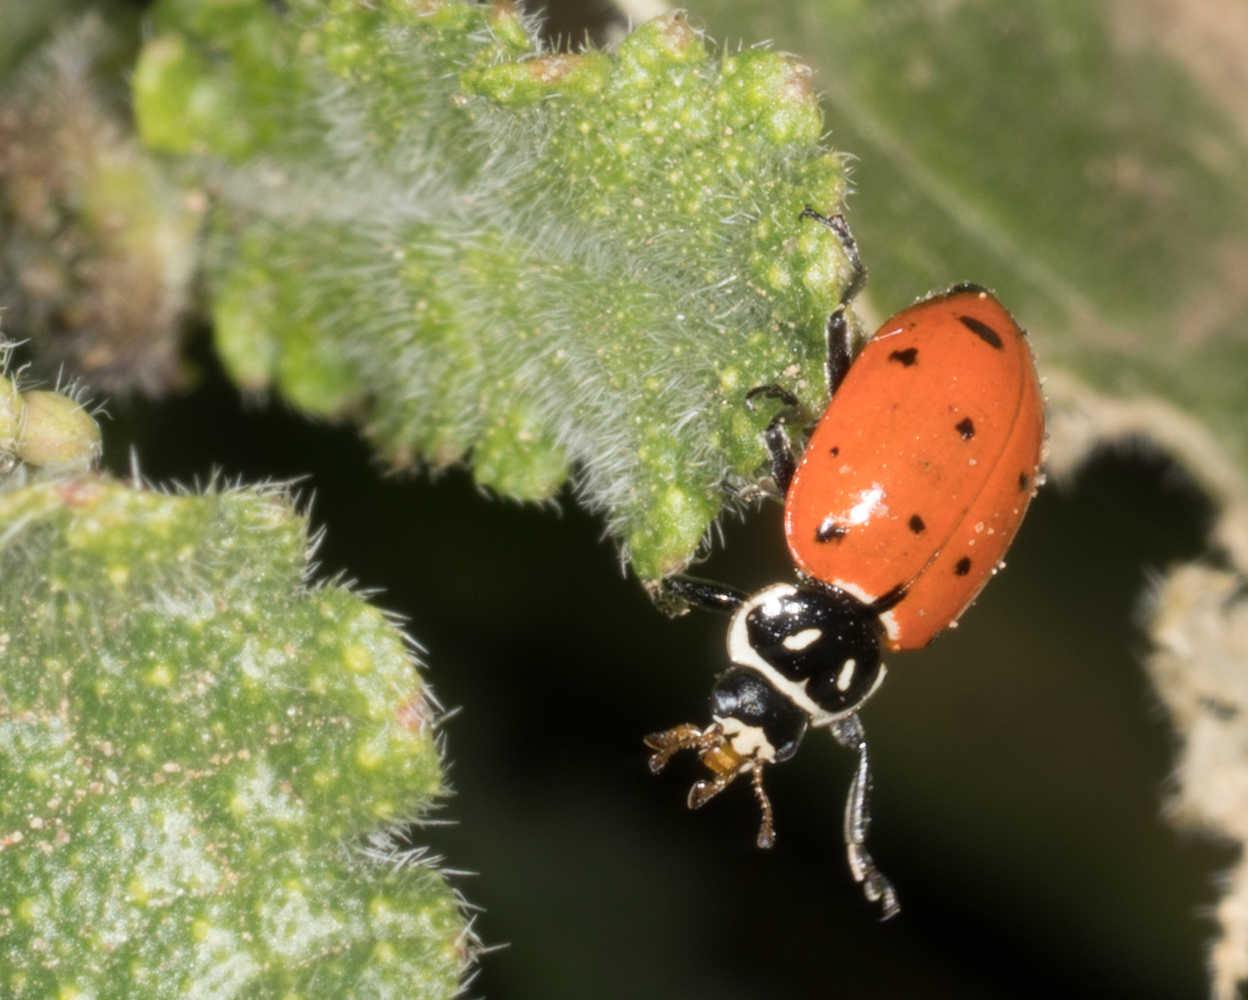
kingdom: Animalia
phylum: Arthropoda
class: Insecta
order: Coleoptera
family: Coccinellidae
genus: Hippodamia
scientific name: Hippodamia convergens
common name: Convergent lady beetle
